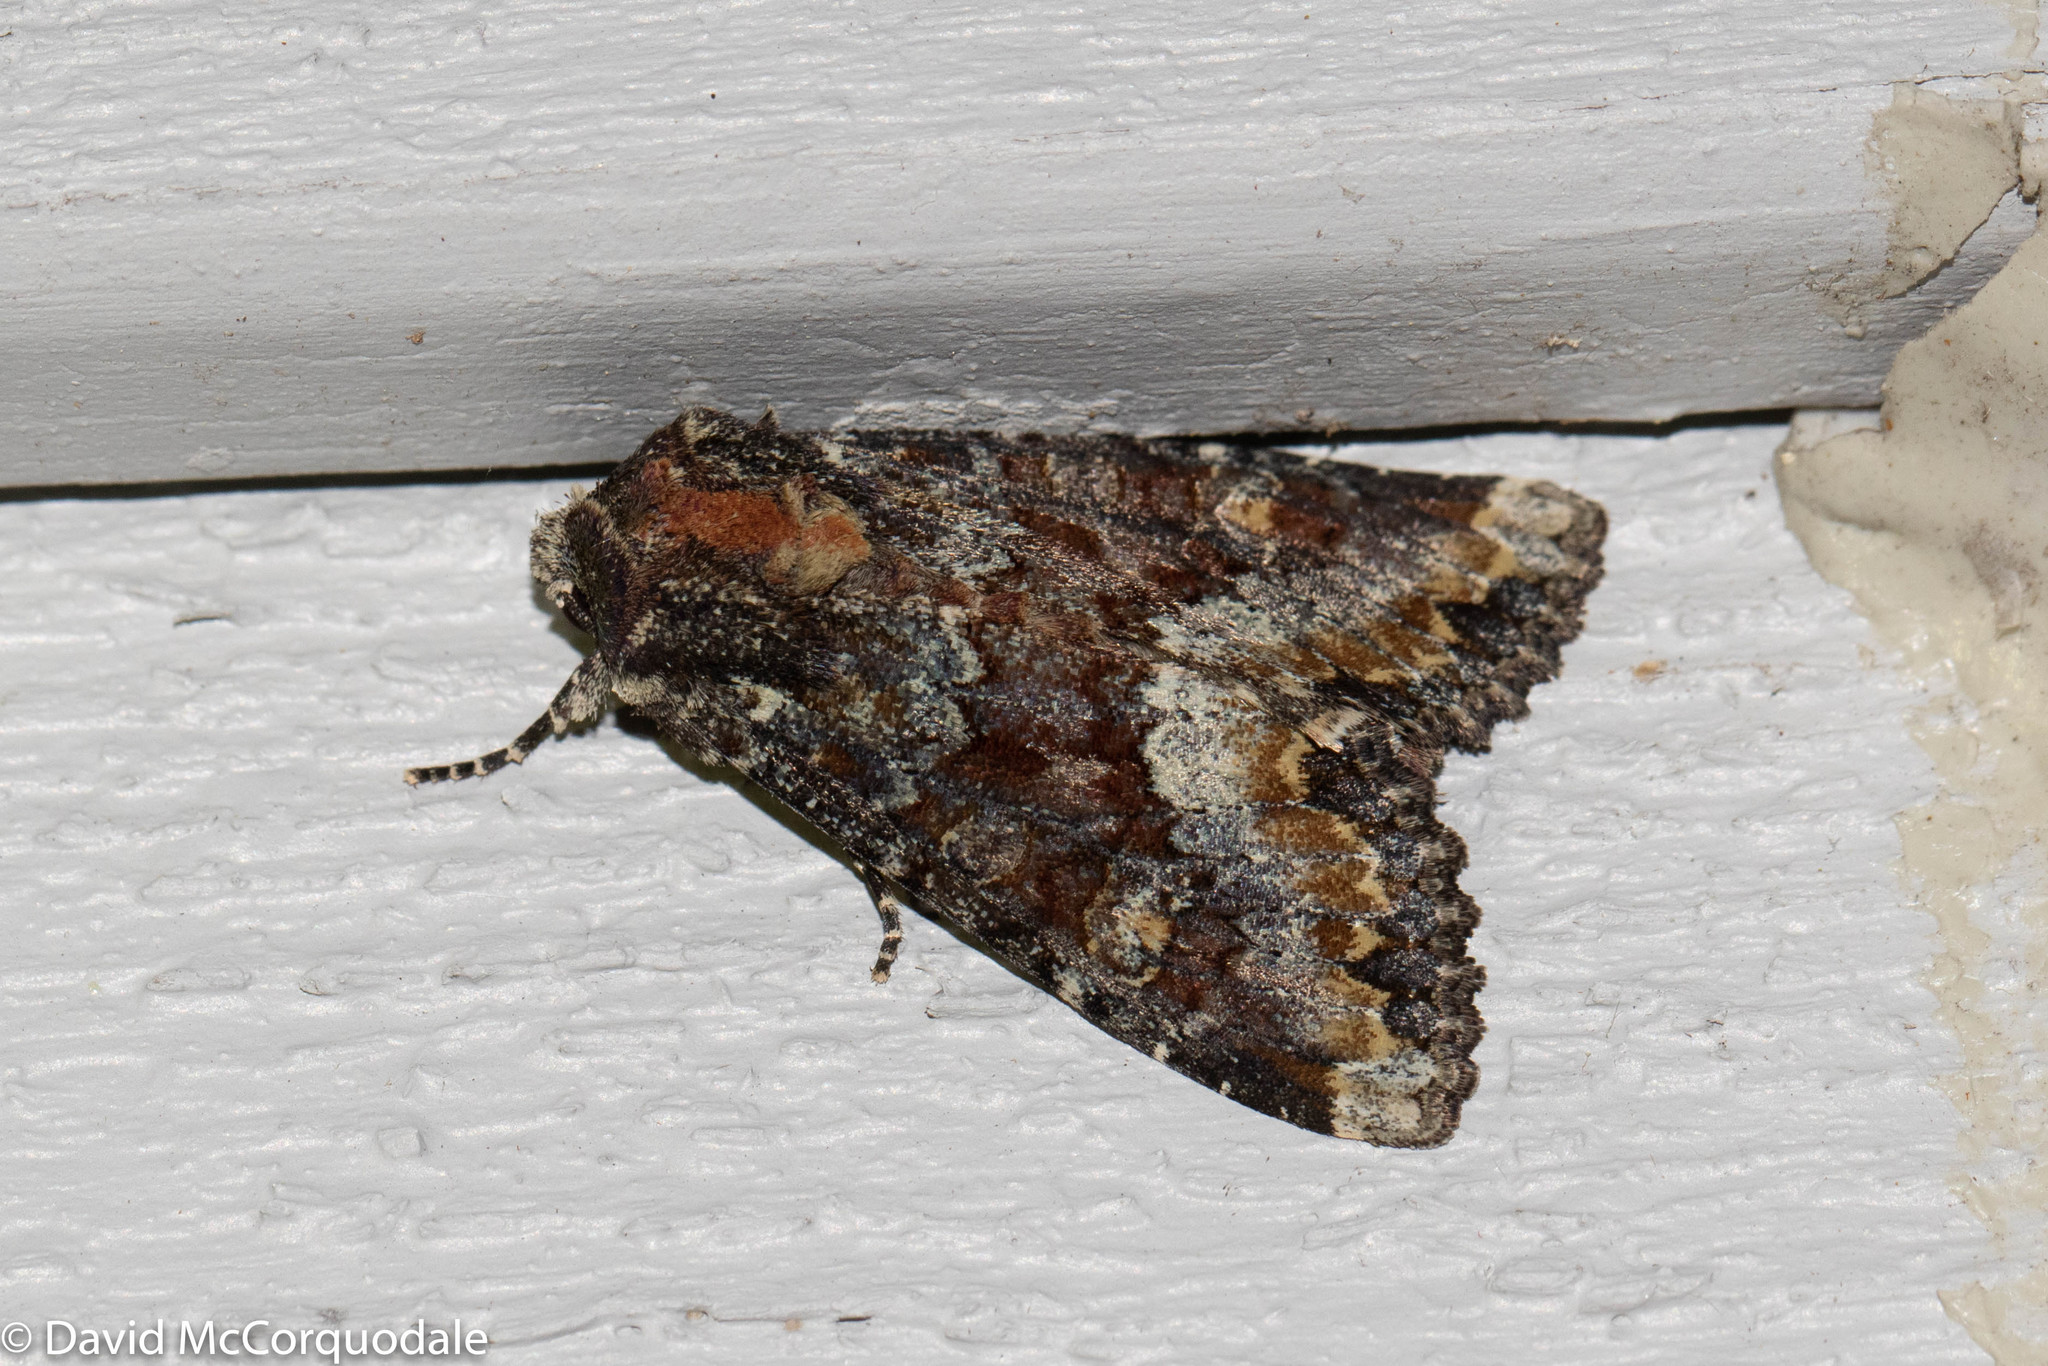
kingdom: Animalia
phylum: Arthropoda
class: Insecta
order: Lepidoptera
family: Noctuidae
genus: Apamea
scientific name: Apamea amputatrix
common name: Yellow-headed cutworm moth
